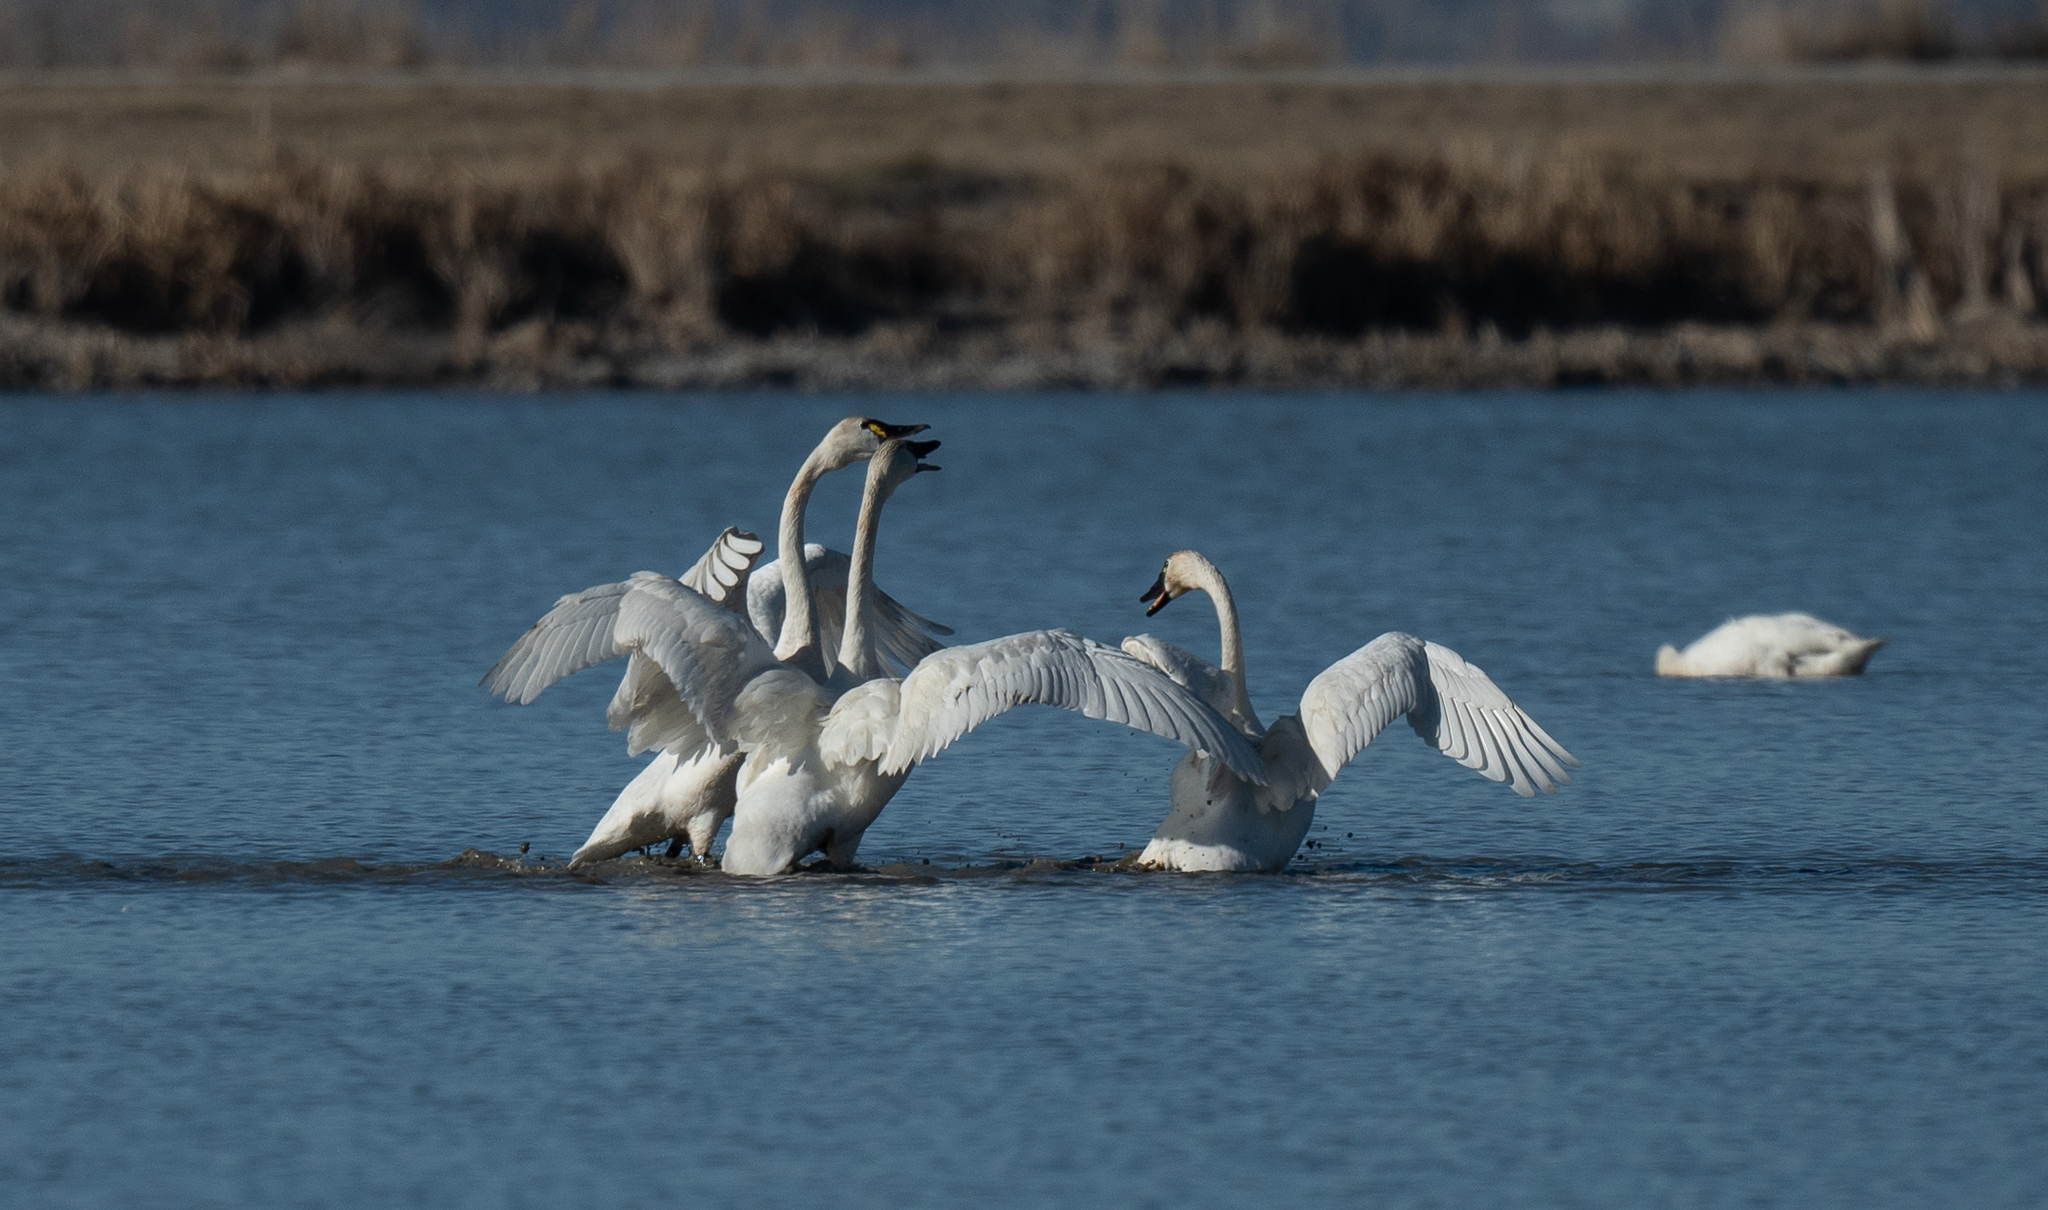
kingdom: Animalia
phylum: Chordata
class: Aves
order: Anseriformes
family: Anatidae
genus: Cygnus
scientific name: Cygnus columbianus
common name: Tundra swan
